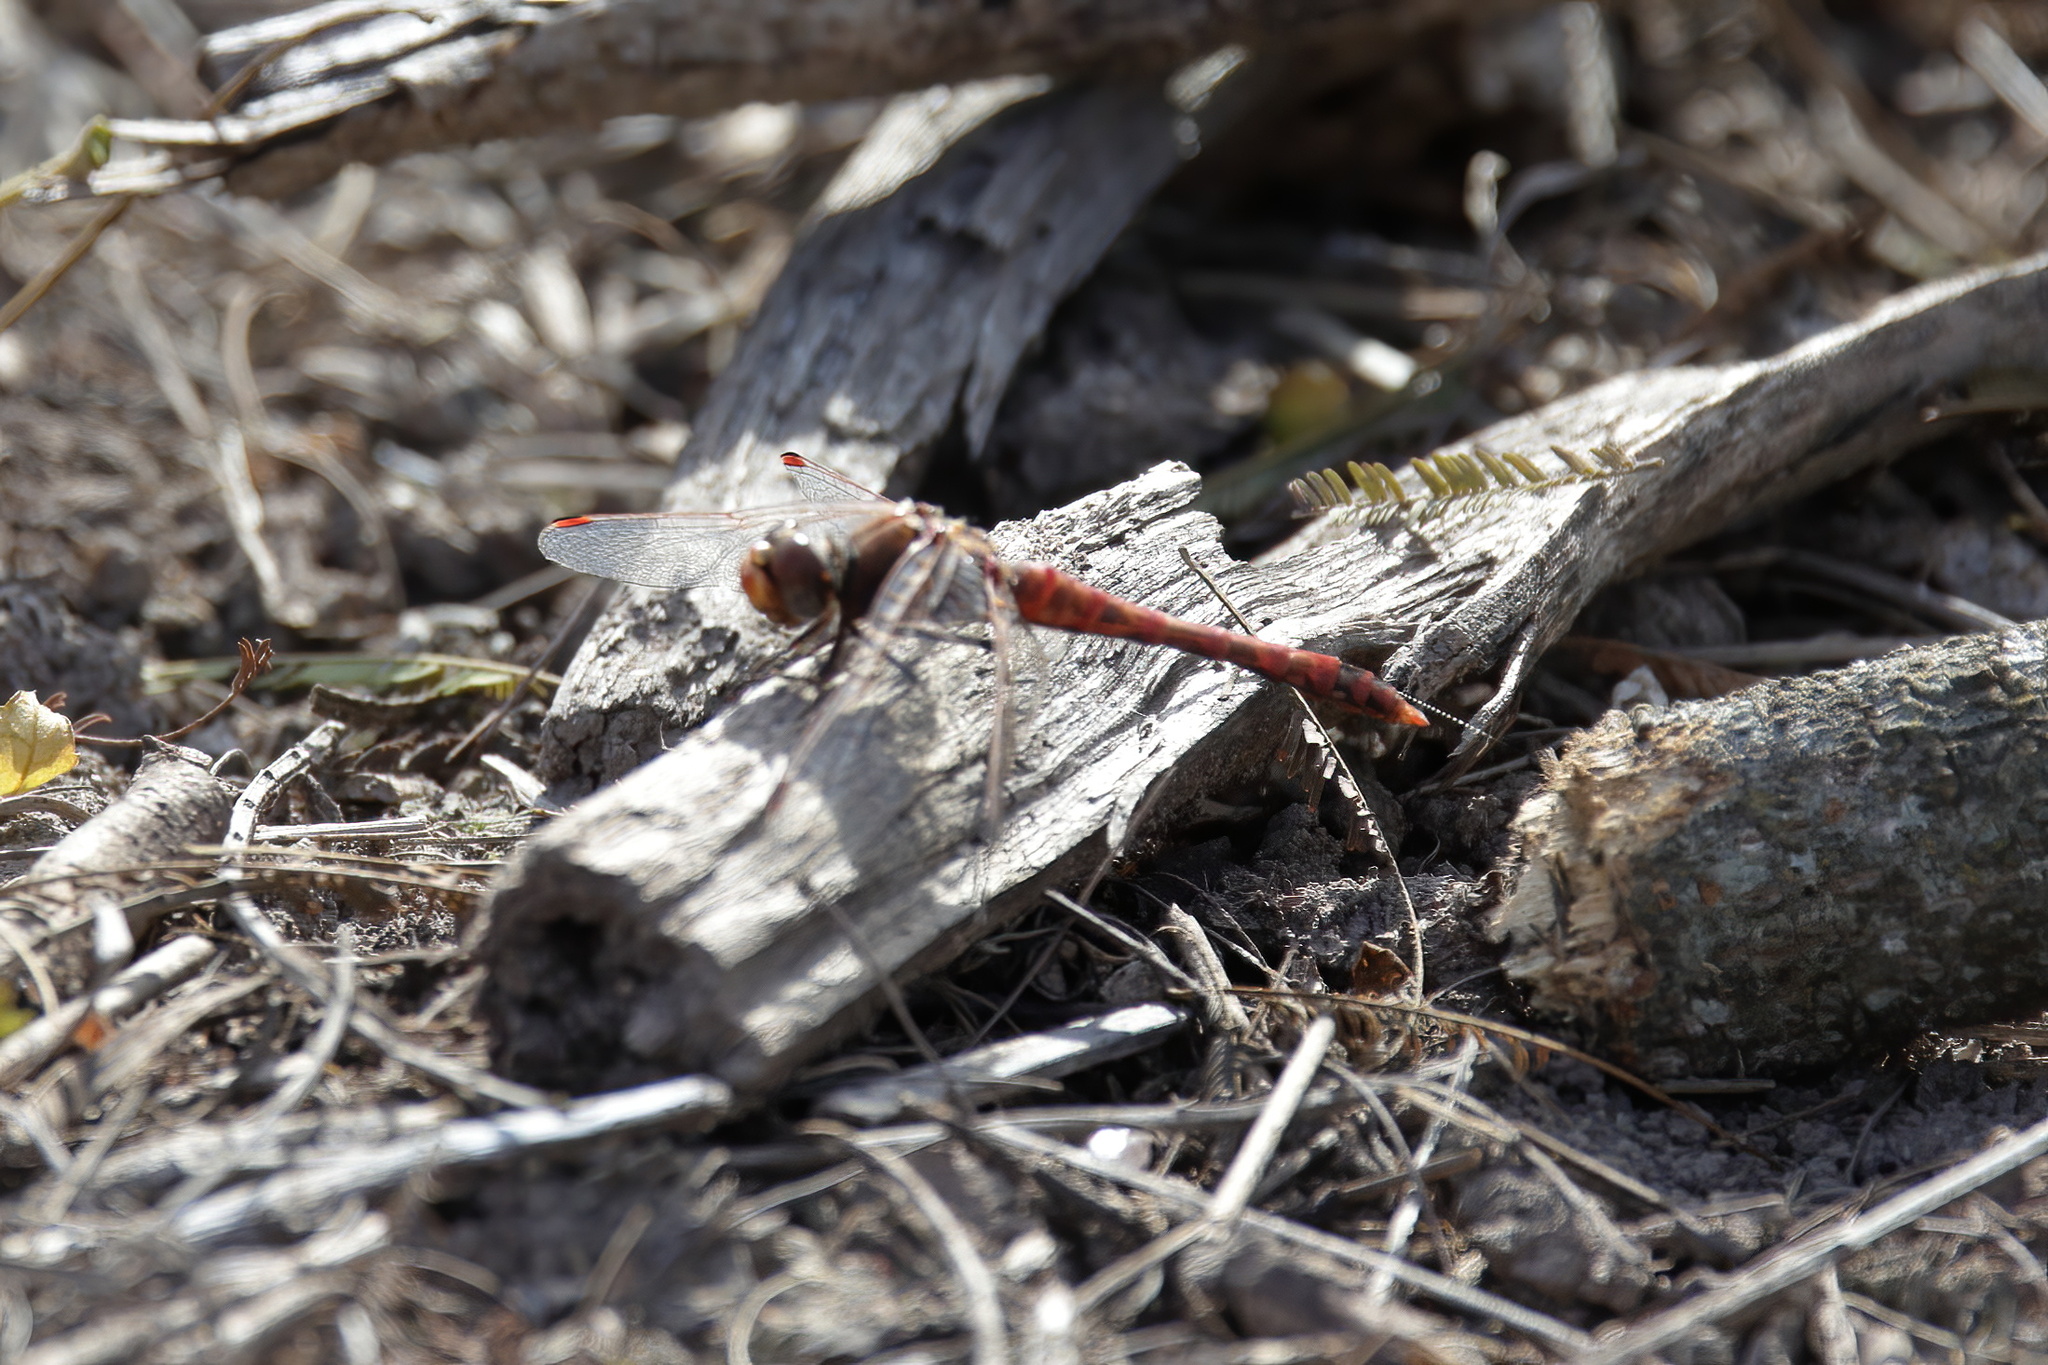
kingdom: Animalia
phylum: Arthropoda
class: Insecta
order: Odonata
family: Libellulidae
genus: Sympetrum
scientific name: Sympetrum corruptum
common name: Variegated meadowhawk
